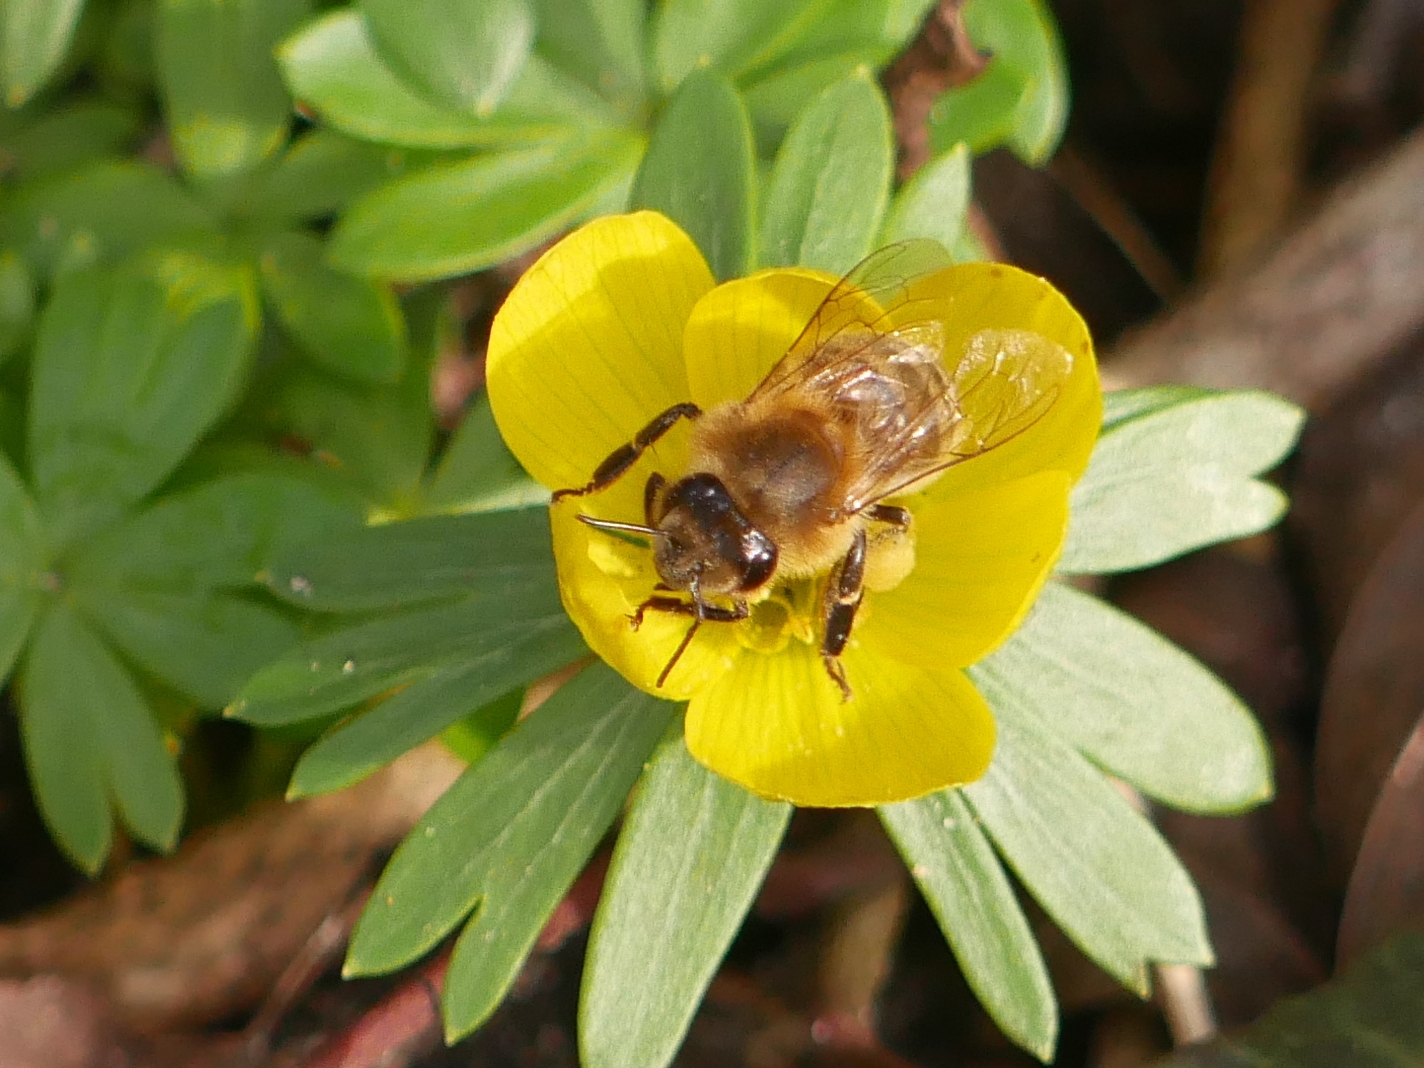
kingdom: Animalia
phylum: Arthropoda
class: Insecta
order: Hymenoptera
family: Apidae
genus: Apis
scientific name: Apis mellifera
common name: Honey bee
